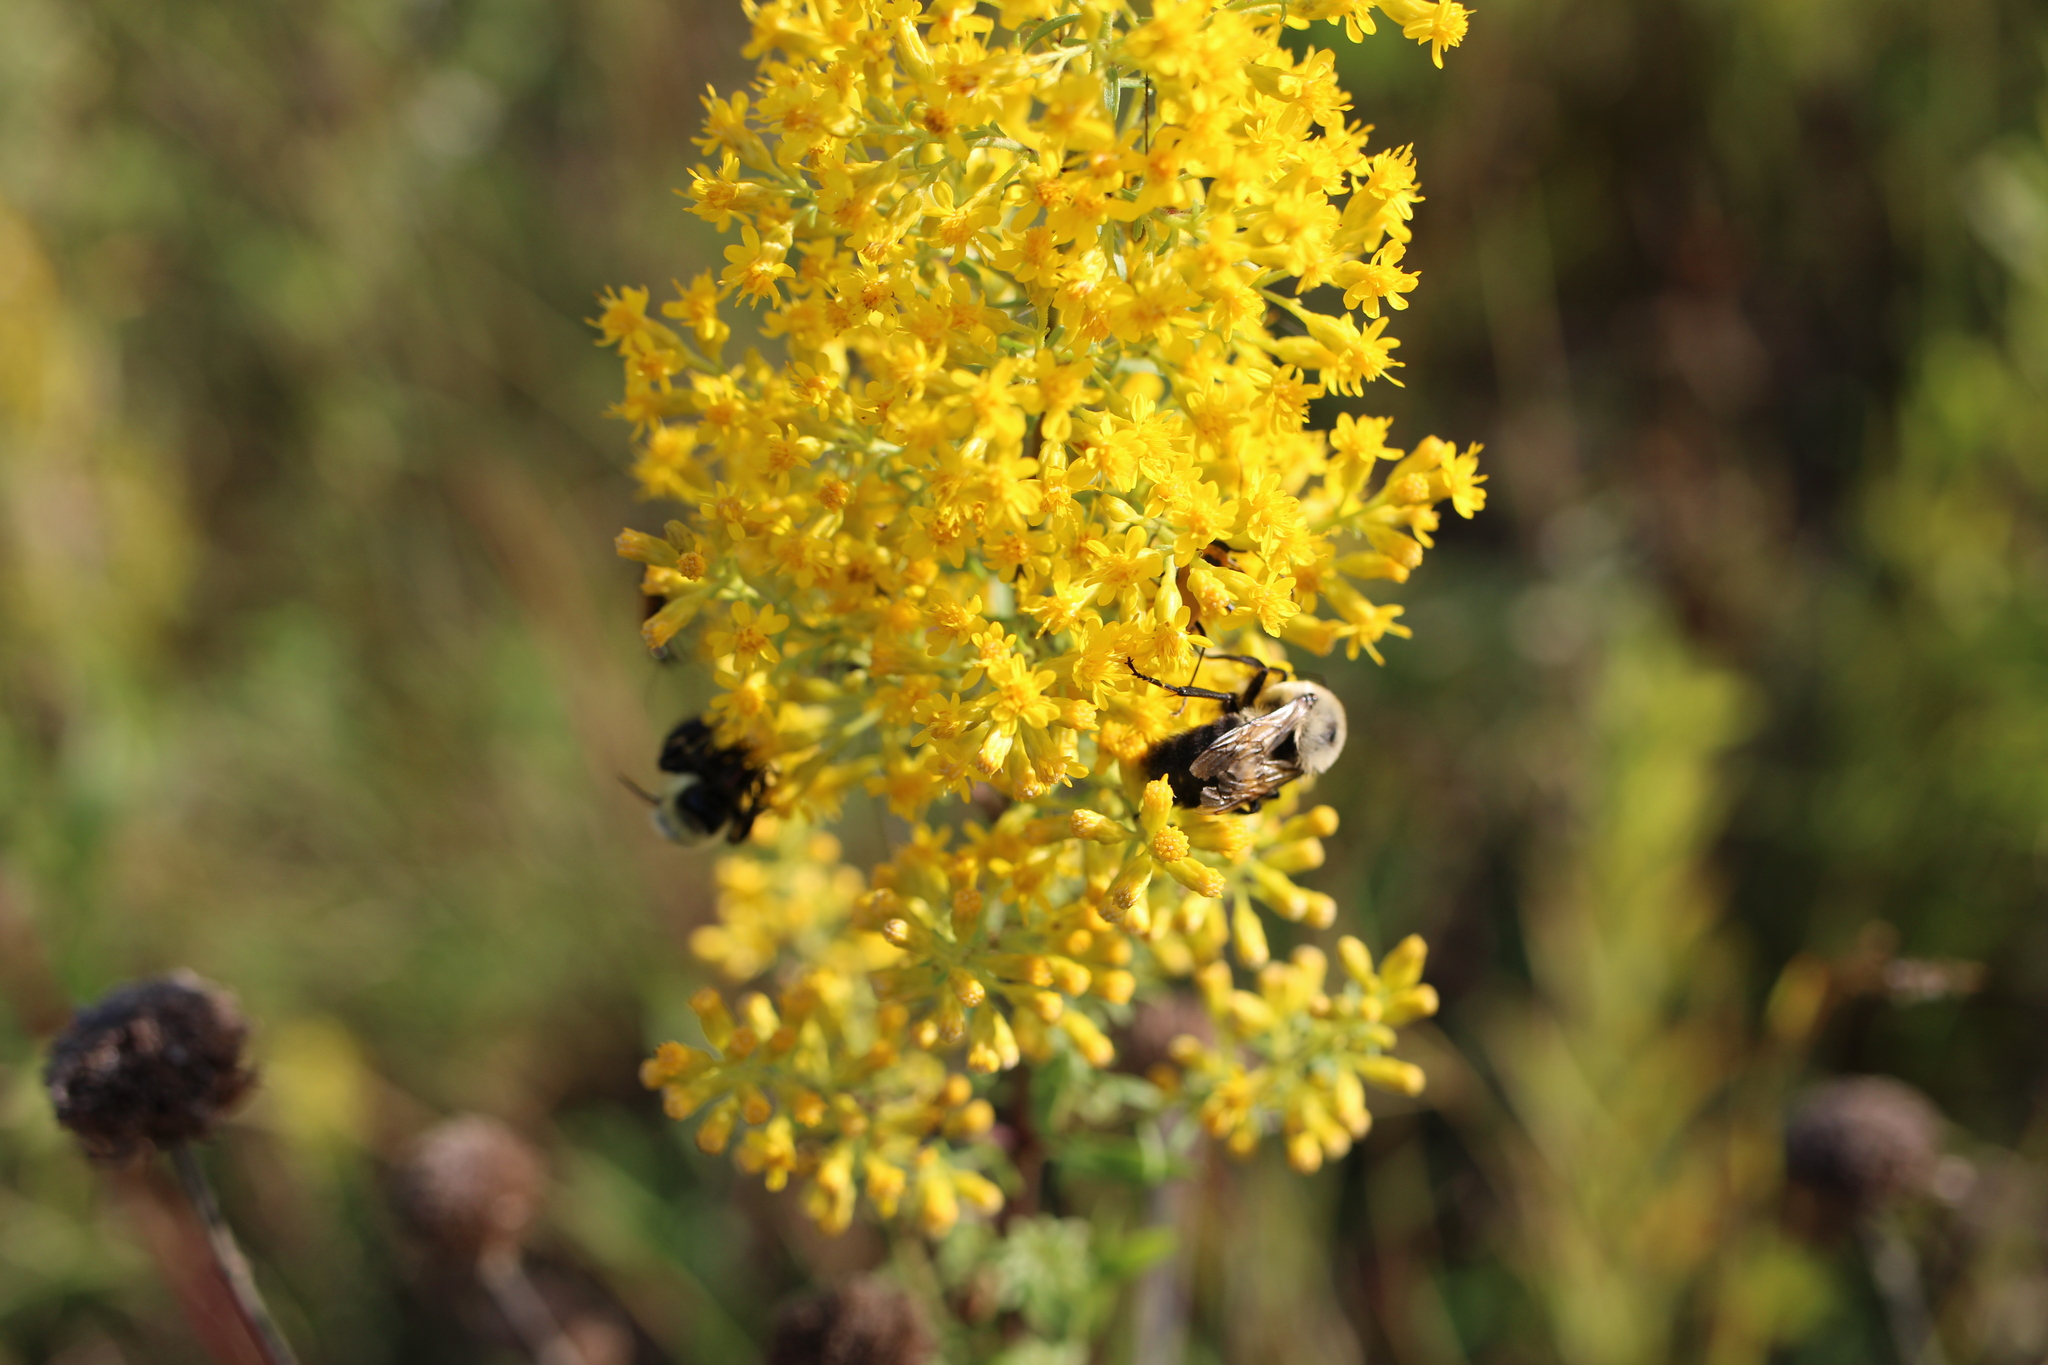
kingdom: Animalia
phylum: Arthropoda
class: Insecta
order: Hymenoptera
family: Apidae
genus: Bombus
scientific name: Bombus impatiens
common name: Common eastern bumble bee
